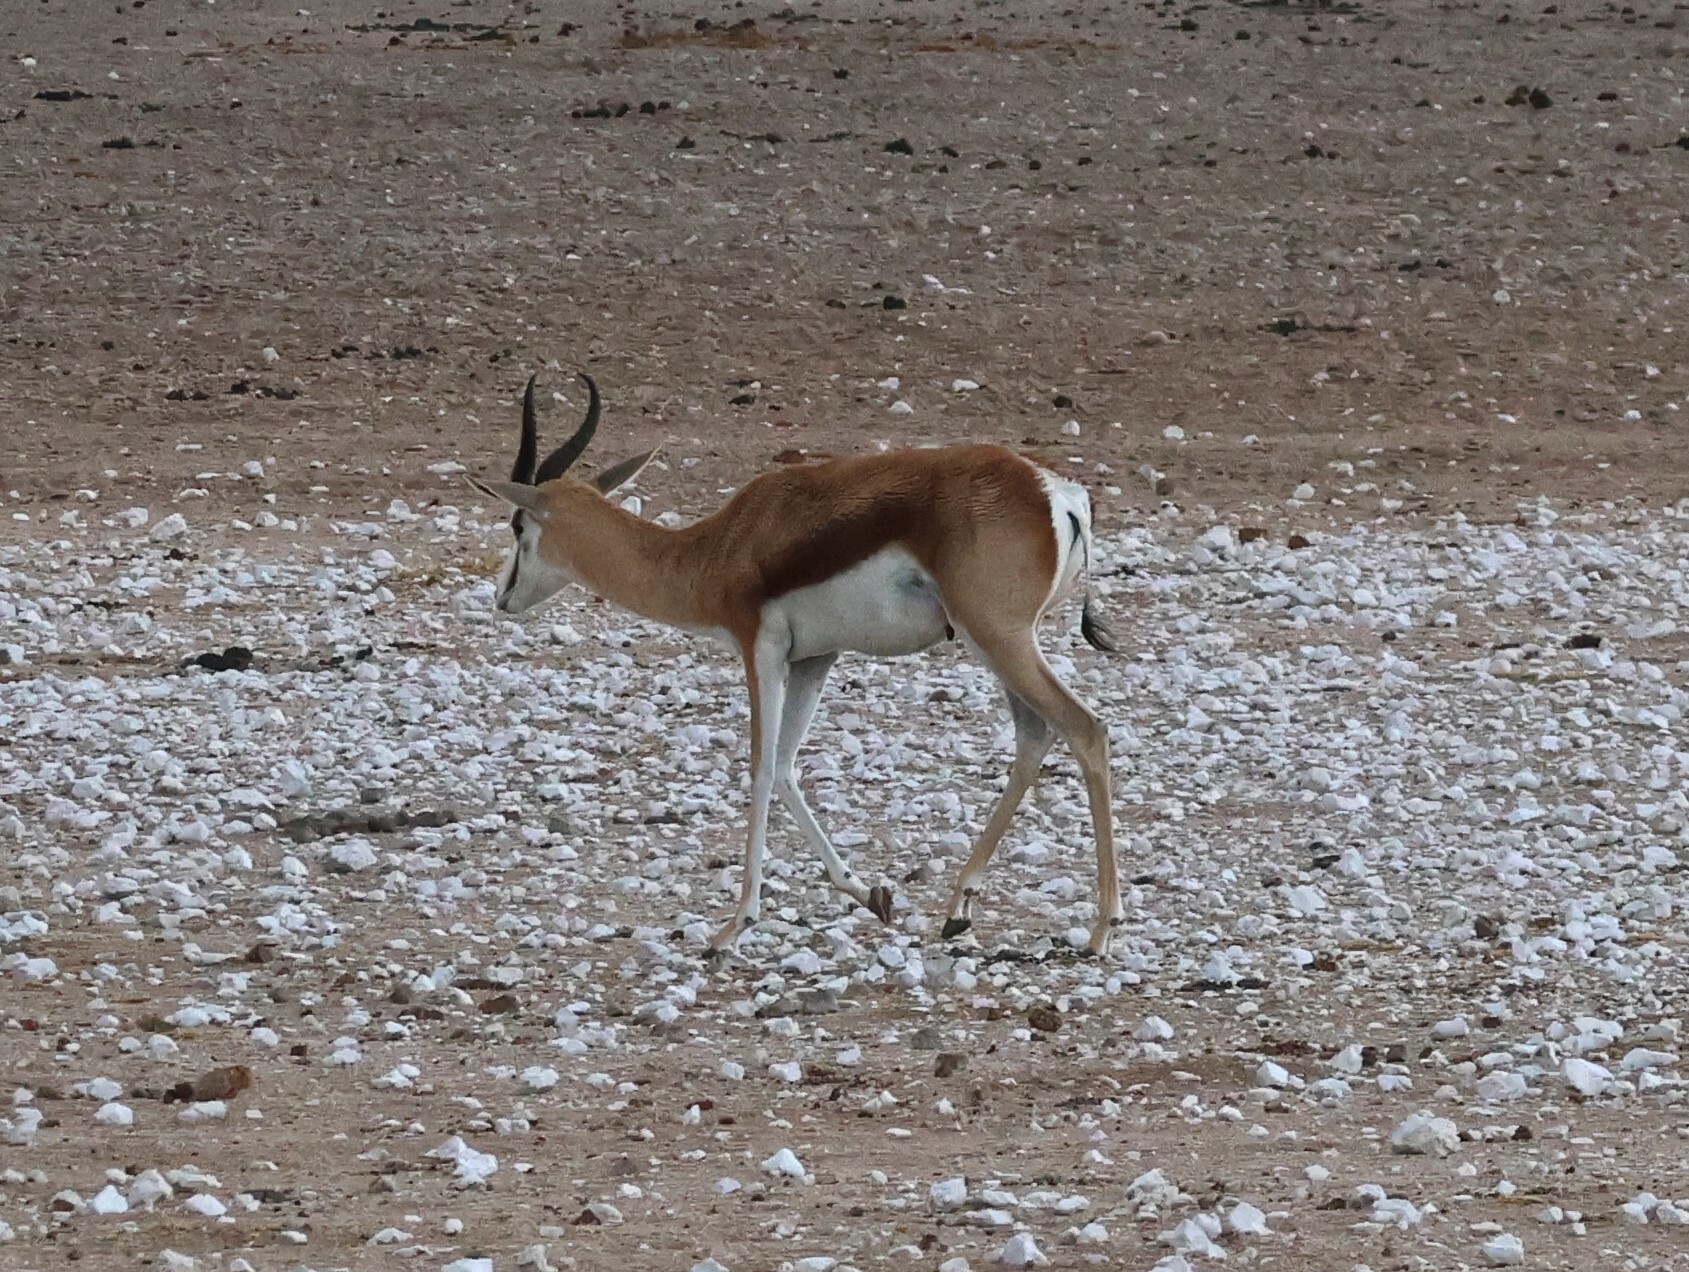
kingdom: Animalia
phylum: Chordata
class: Mammalia
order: Artiodactyla
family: Bovidae
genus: Antidorcas
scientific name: Antidorcas marsupialis
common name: Springbok
